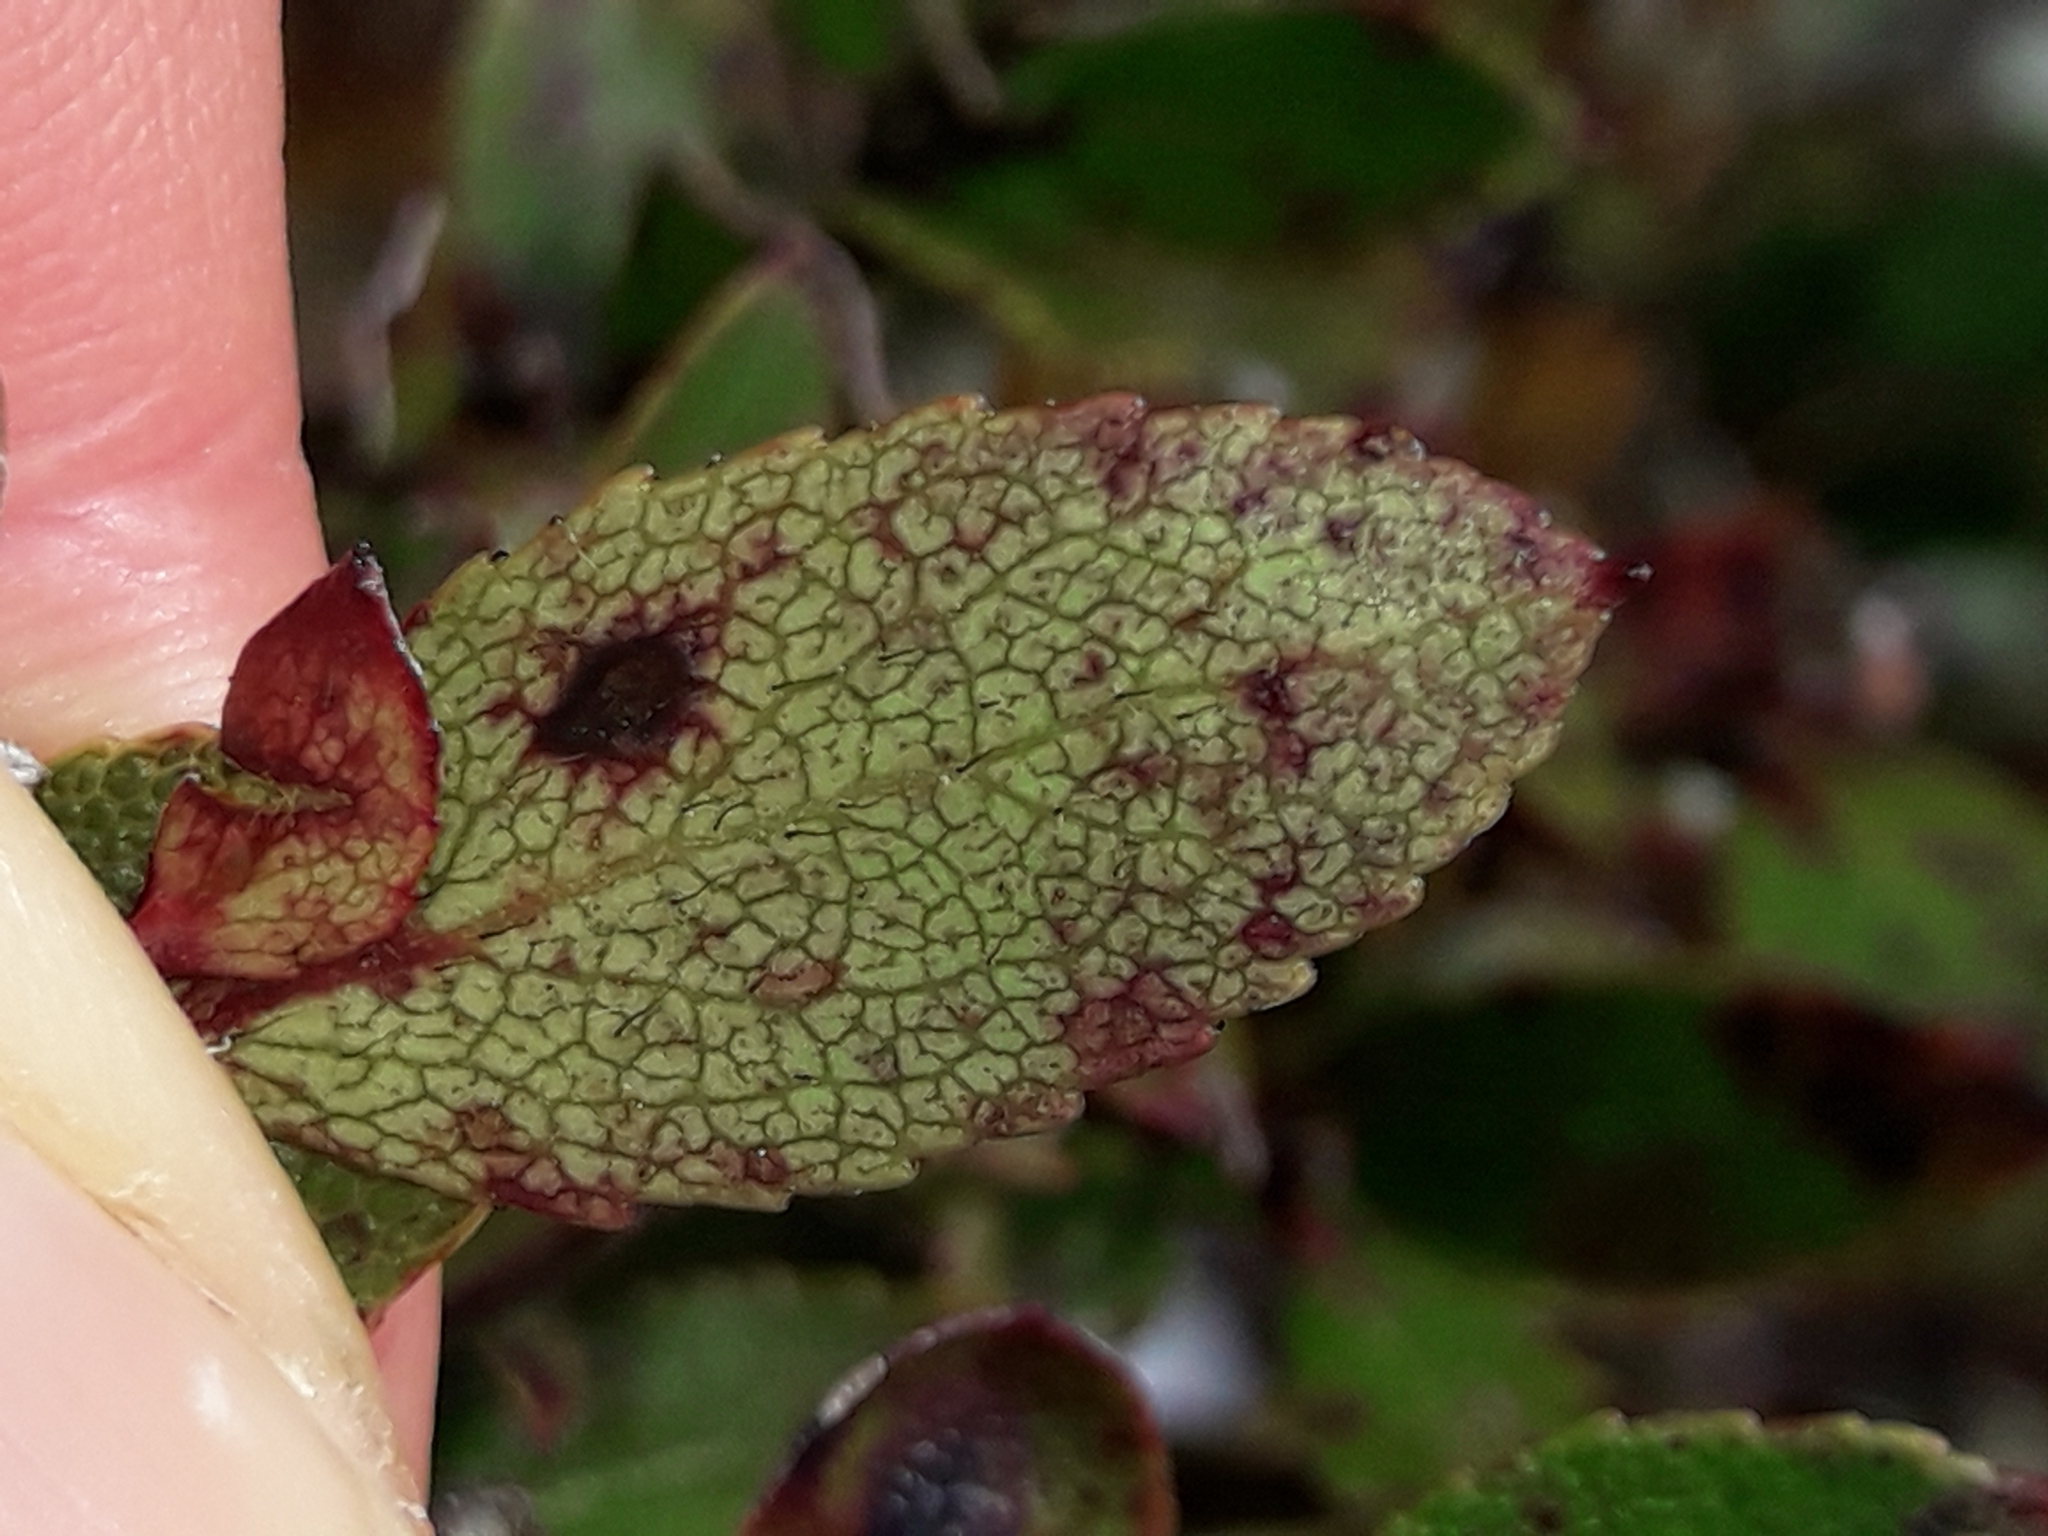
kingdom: Plantae
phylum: Tracheophyta
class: Magnoliopsida
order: Ericales
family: Ericaceae
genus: Gaultheria
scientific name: Gaultheria rupestris
